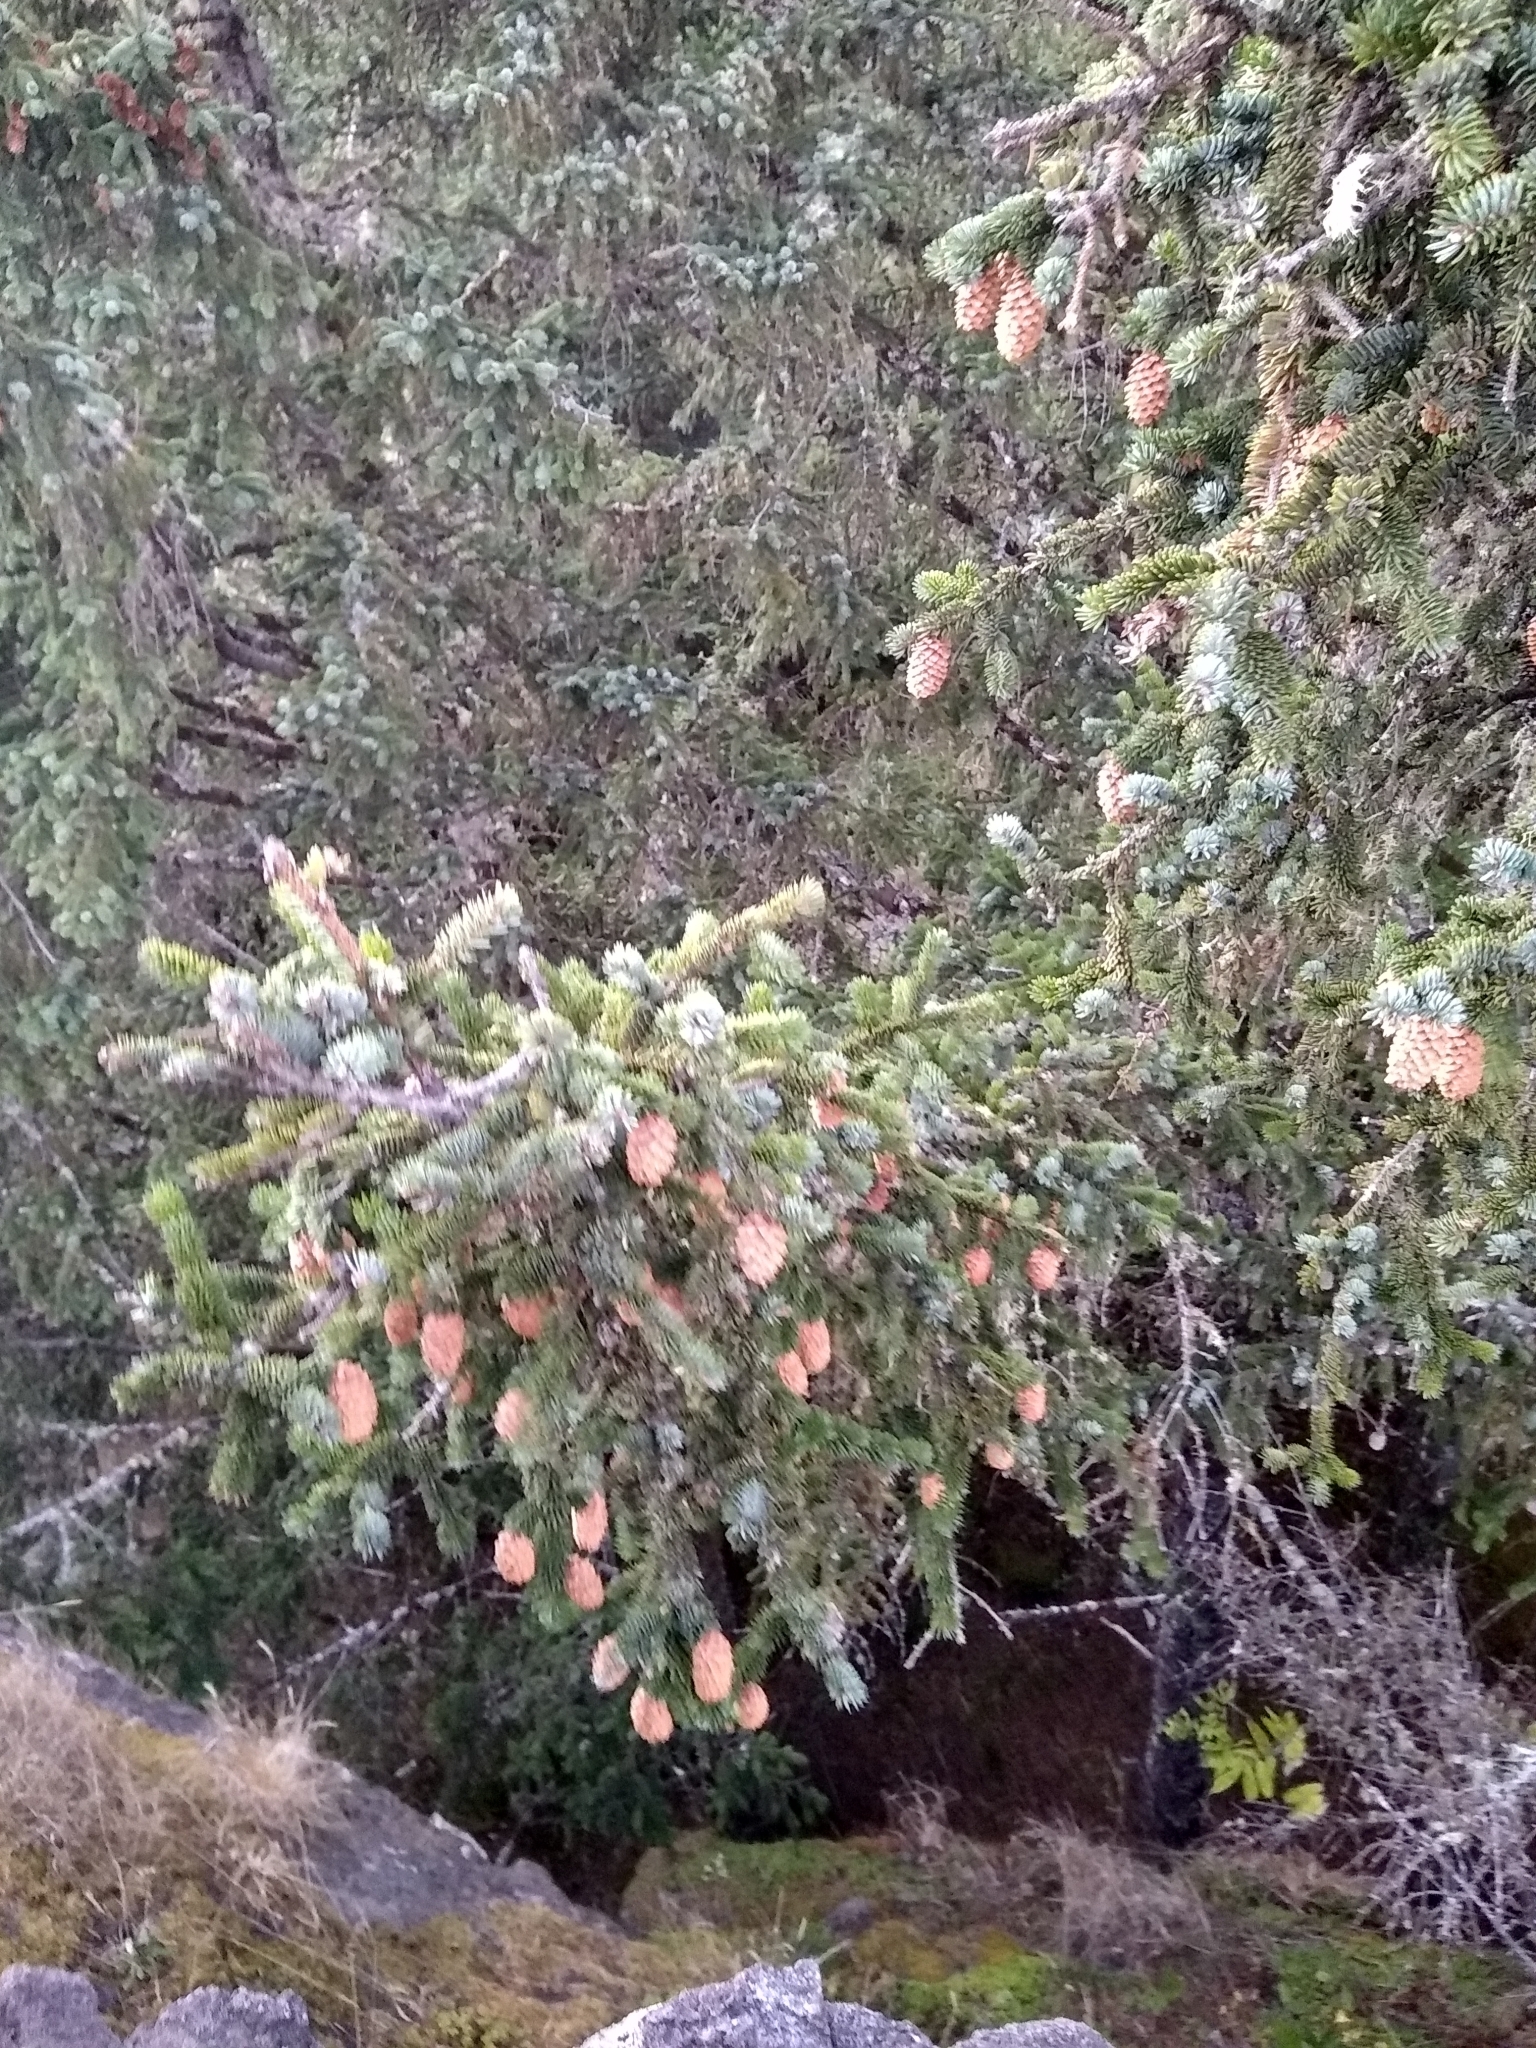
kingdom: Plantae
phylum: Tracheophyta
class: Pinopsida
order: Pinales
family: Pinaceae
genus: Picea
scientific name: Picea sitchensis
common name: Sitka spruce
